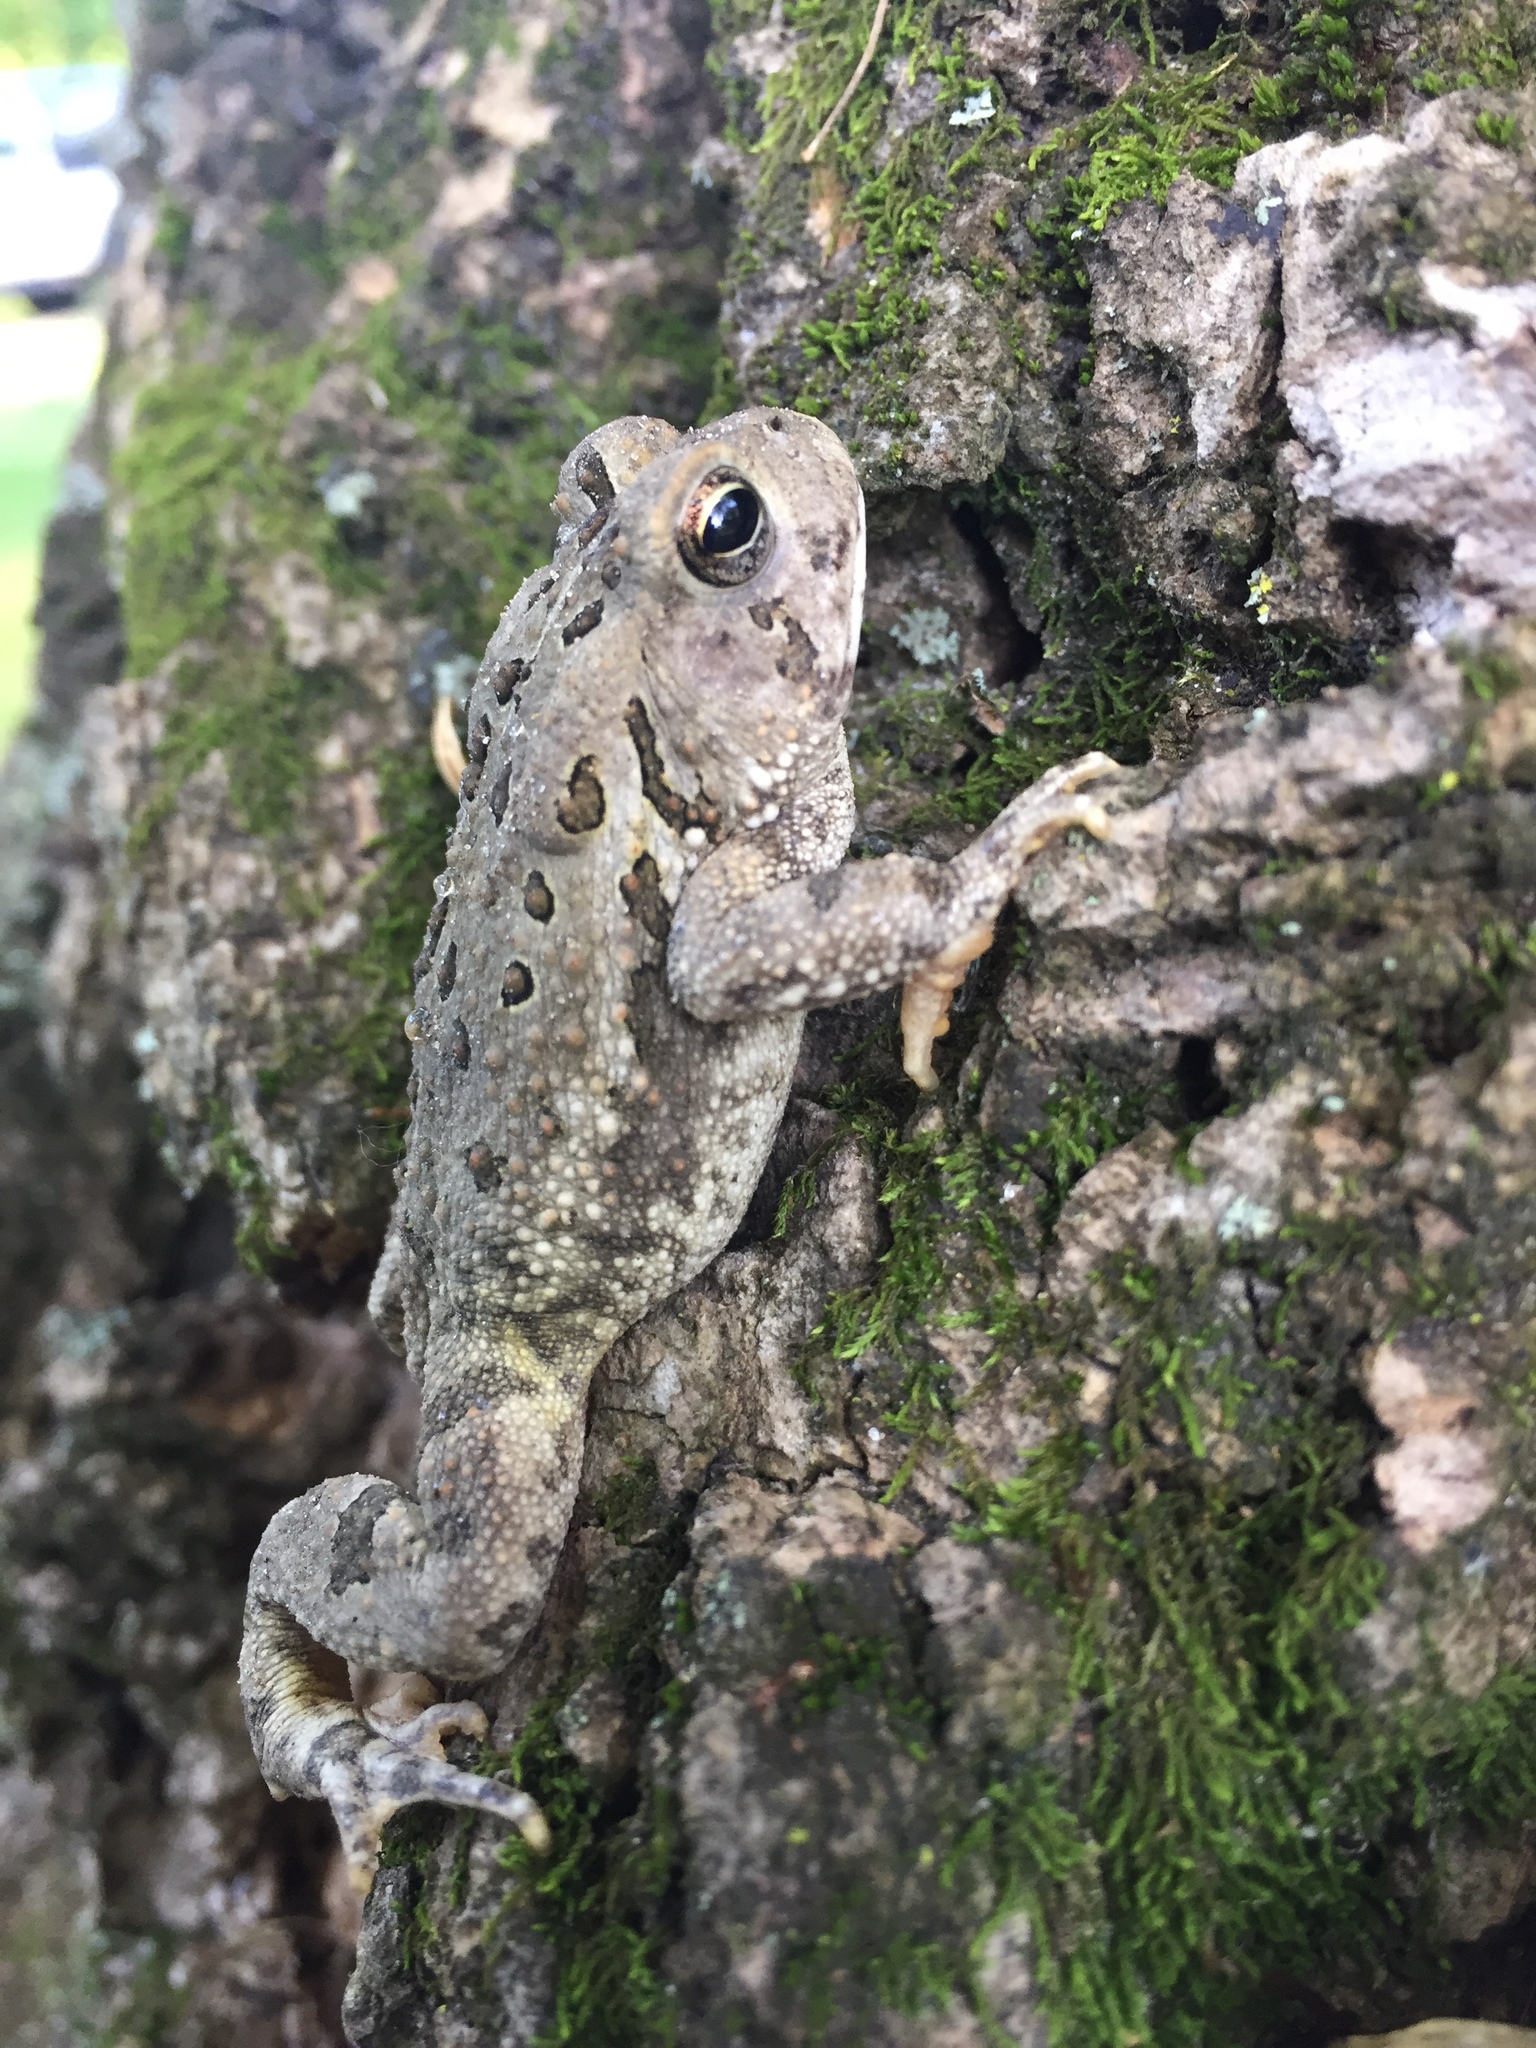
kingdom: Animalia
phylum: Chordata
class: Amphibia
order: Anura
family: Bufonidae
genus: Anaxyrus
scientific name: Anaxyrus americanus
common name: American toad
